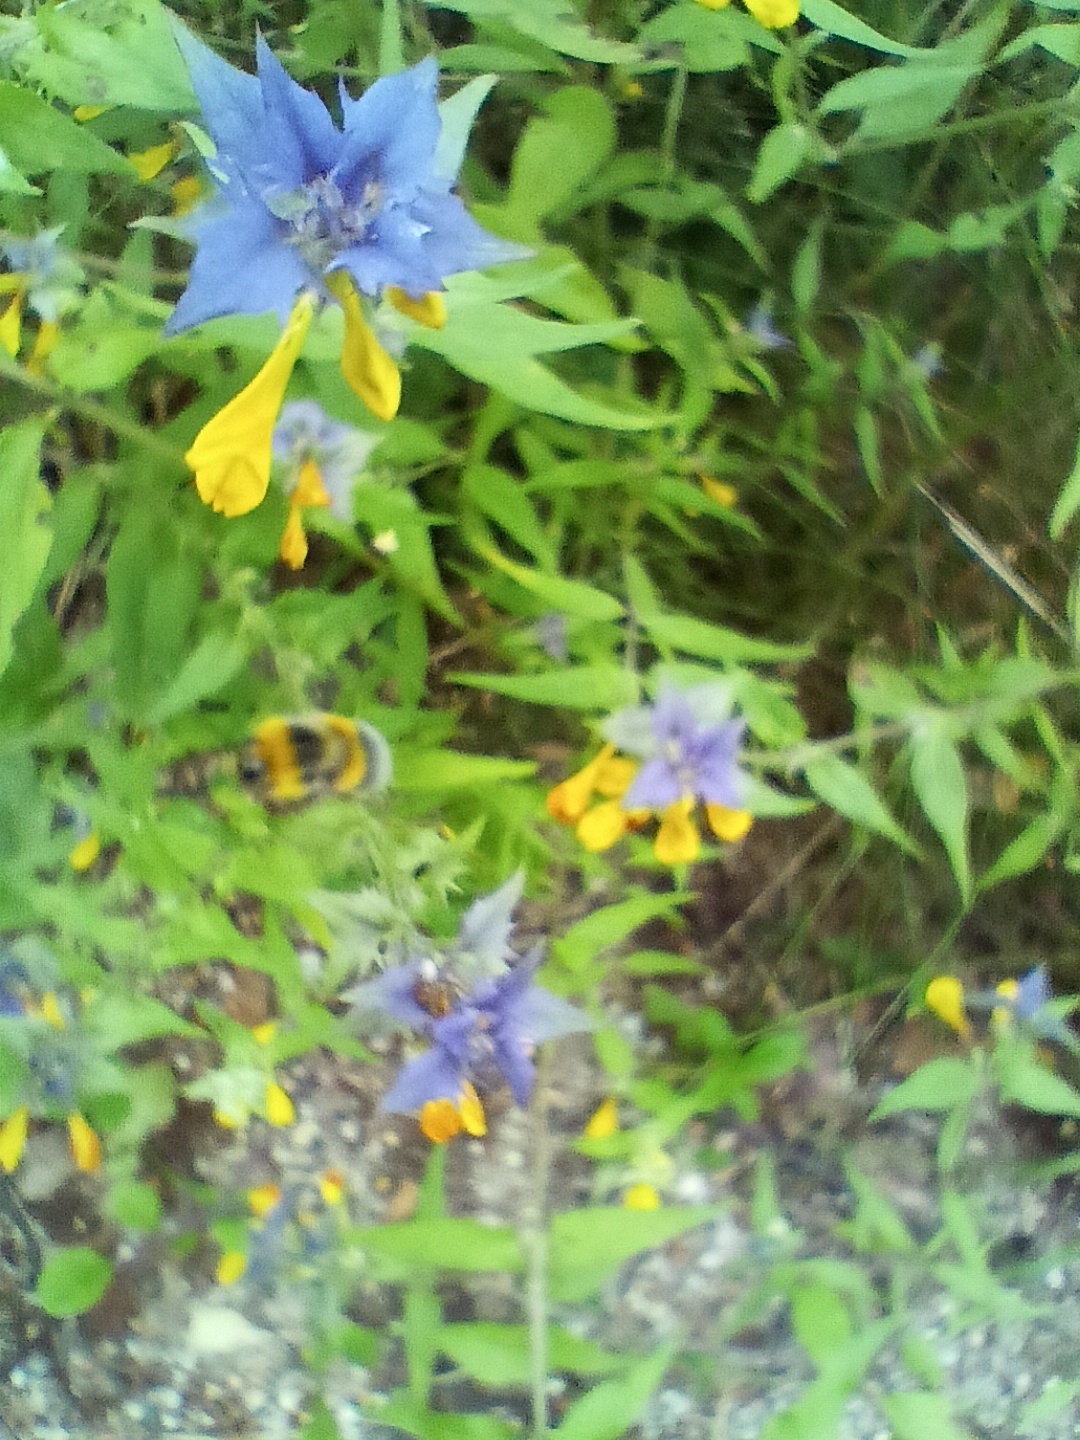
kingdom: Plantae
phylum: Tracheophyta
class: Magnoliopsida
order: Lamiales
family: Orobanchaceae
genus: Melampyrum
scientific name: Melampyrum nemorosum
